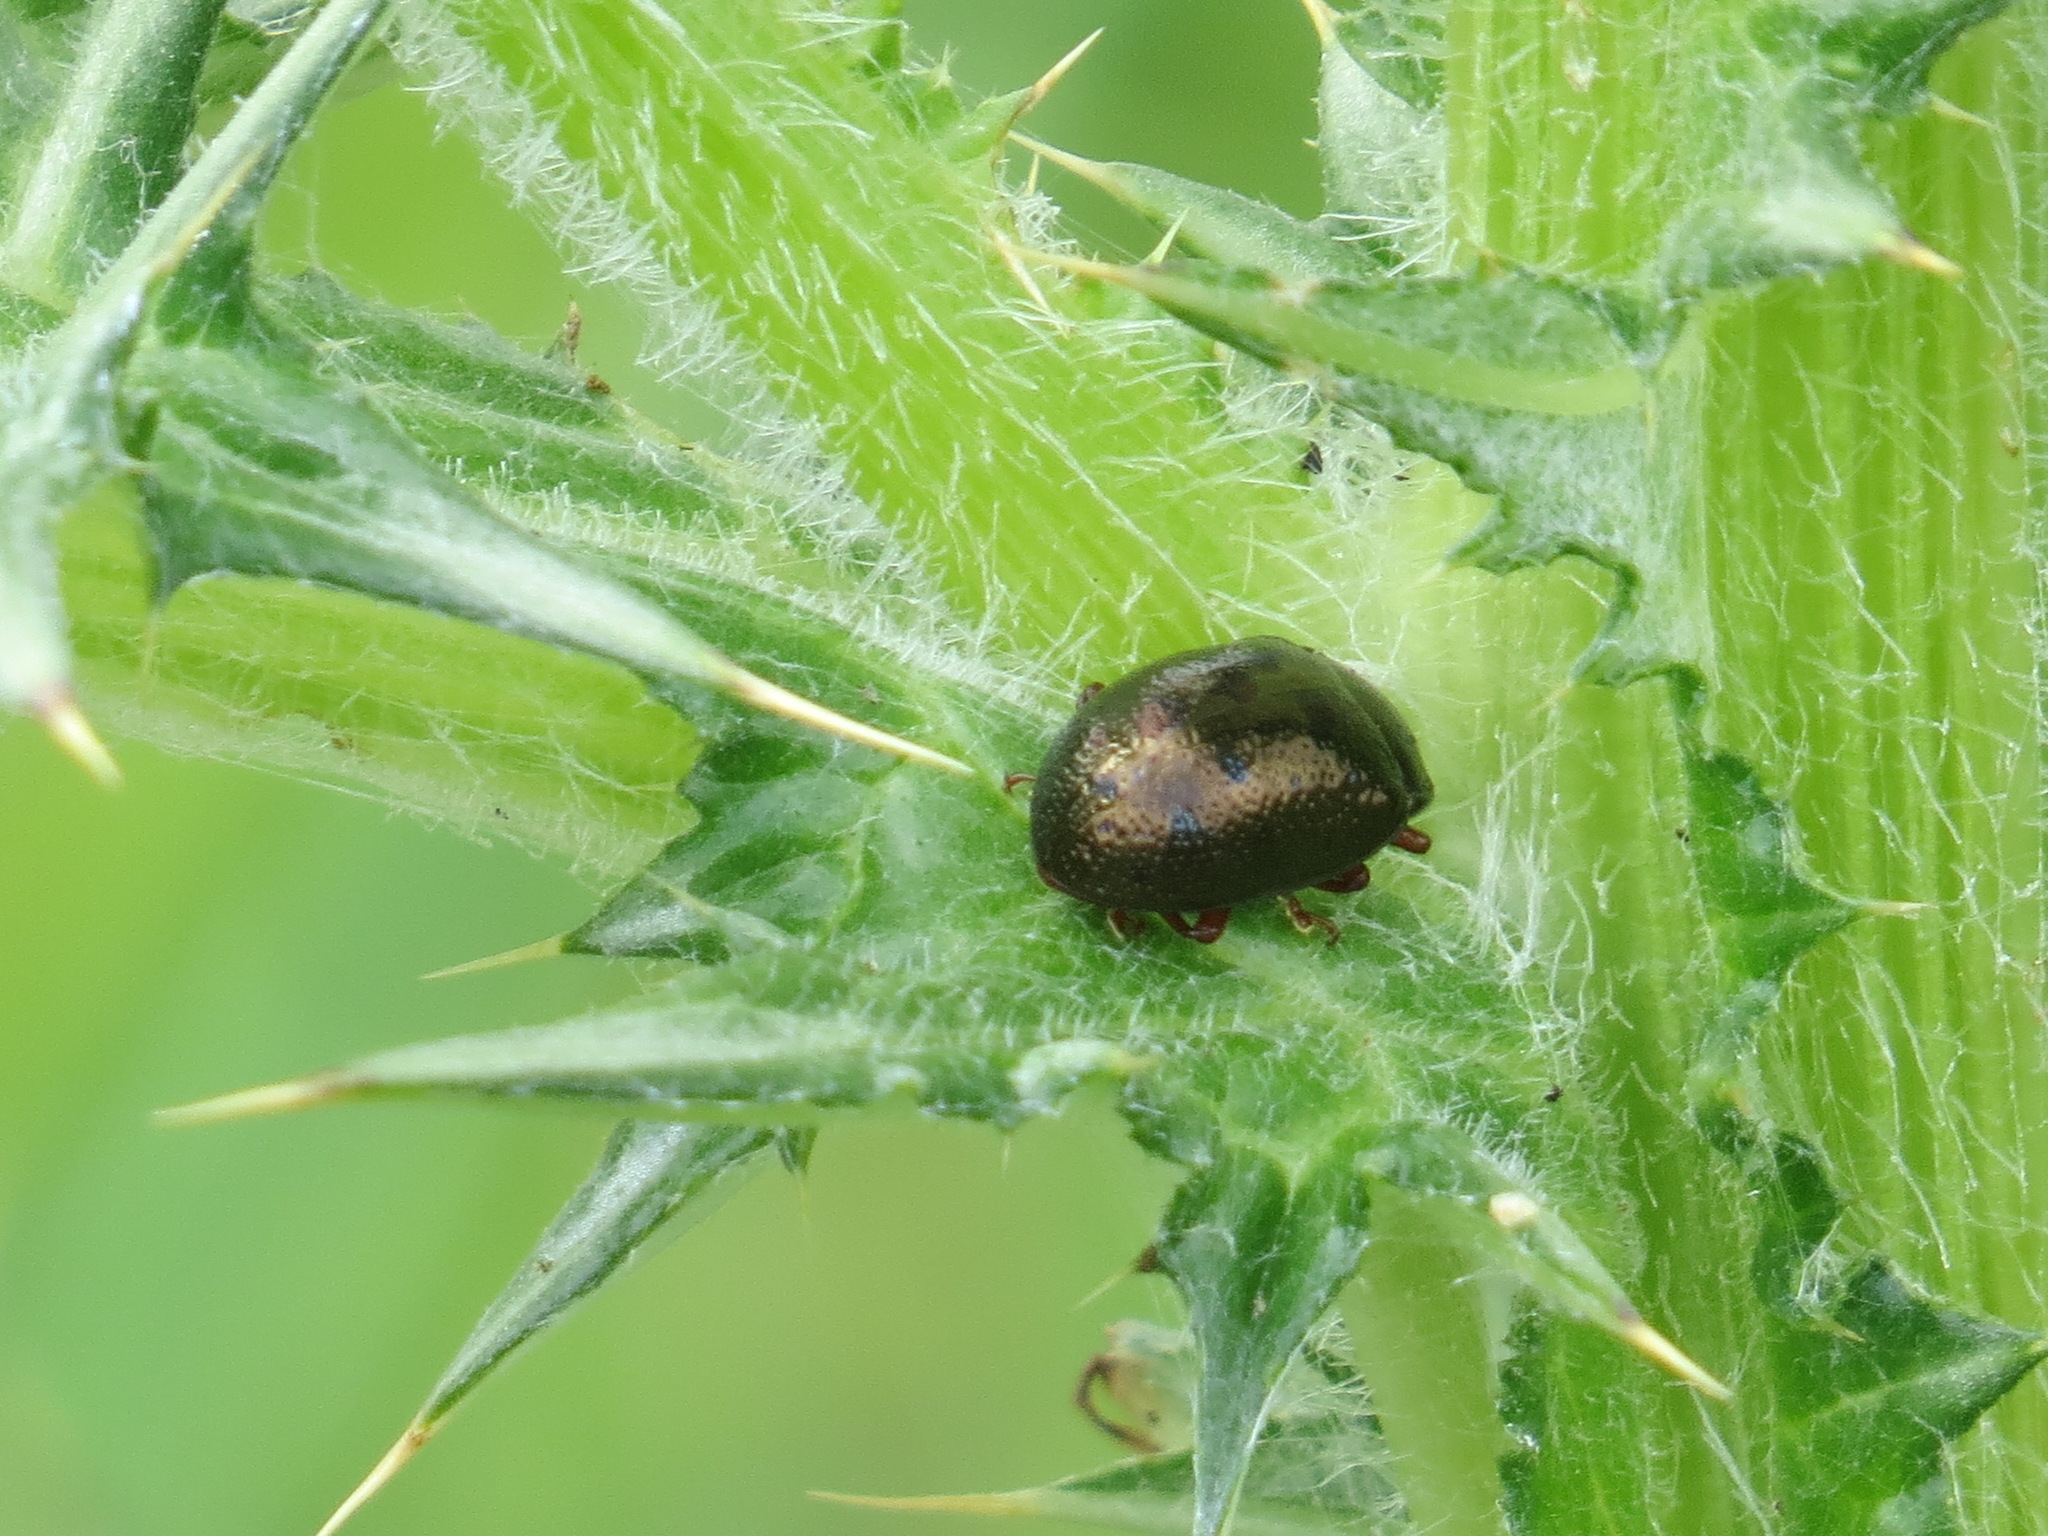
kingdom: Animalia
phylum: Arthropoda
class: Insecta
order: Coleoptera
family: Chrysomelidae
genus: Chrysolina
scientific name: Chrysolina bankii
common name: Leaf beetle
